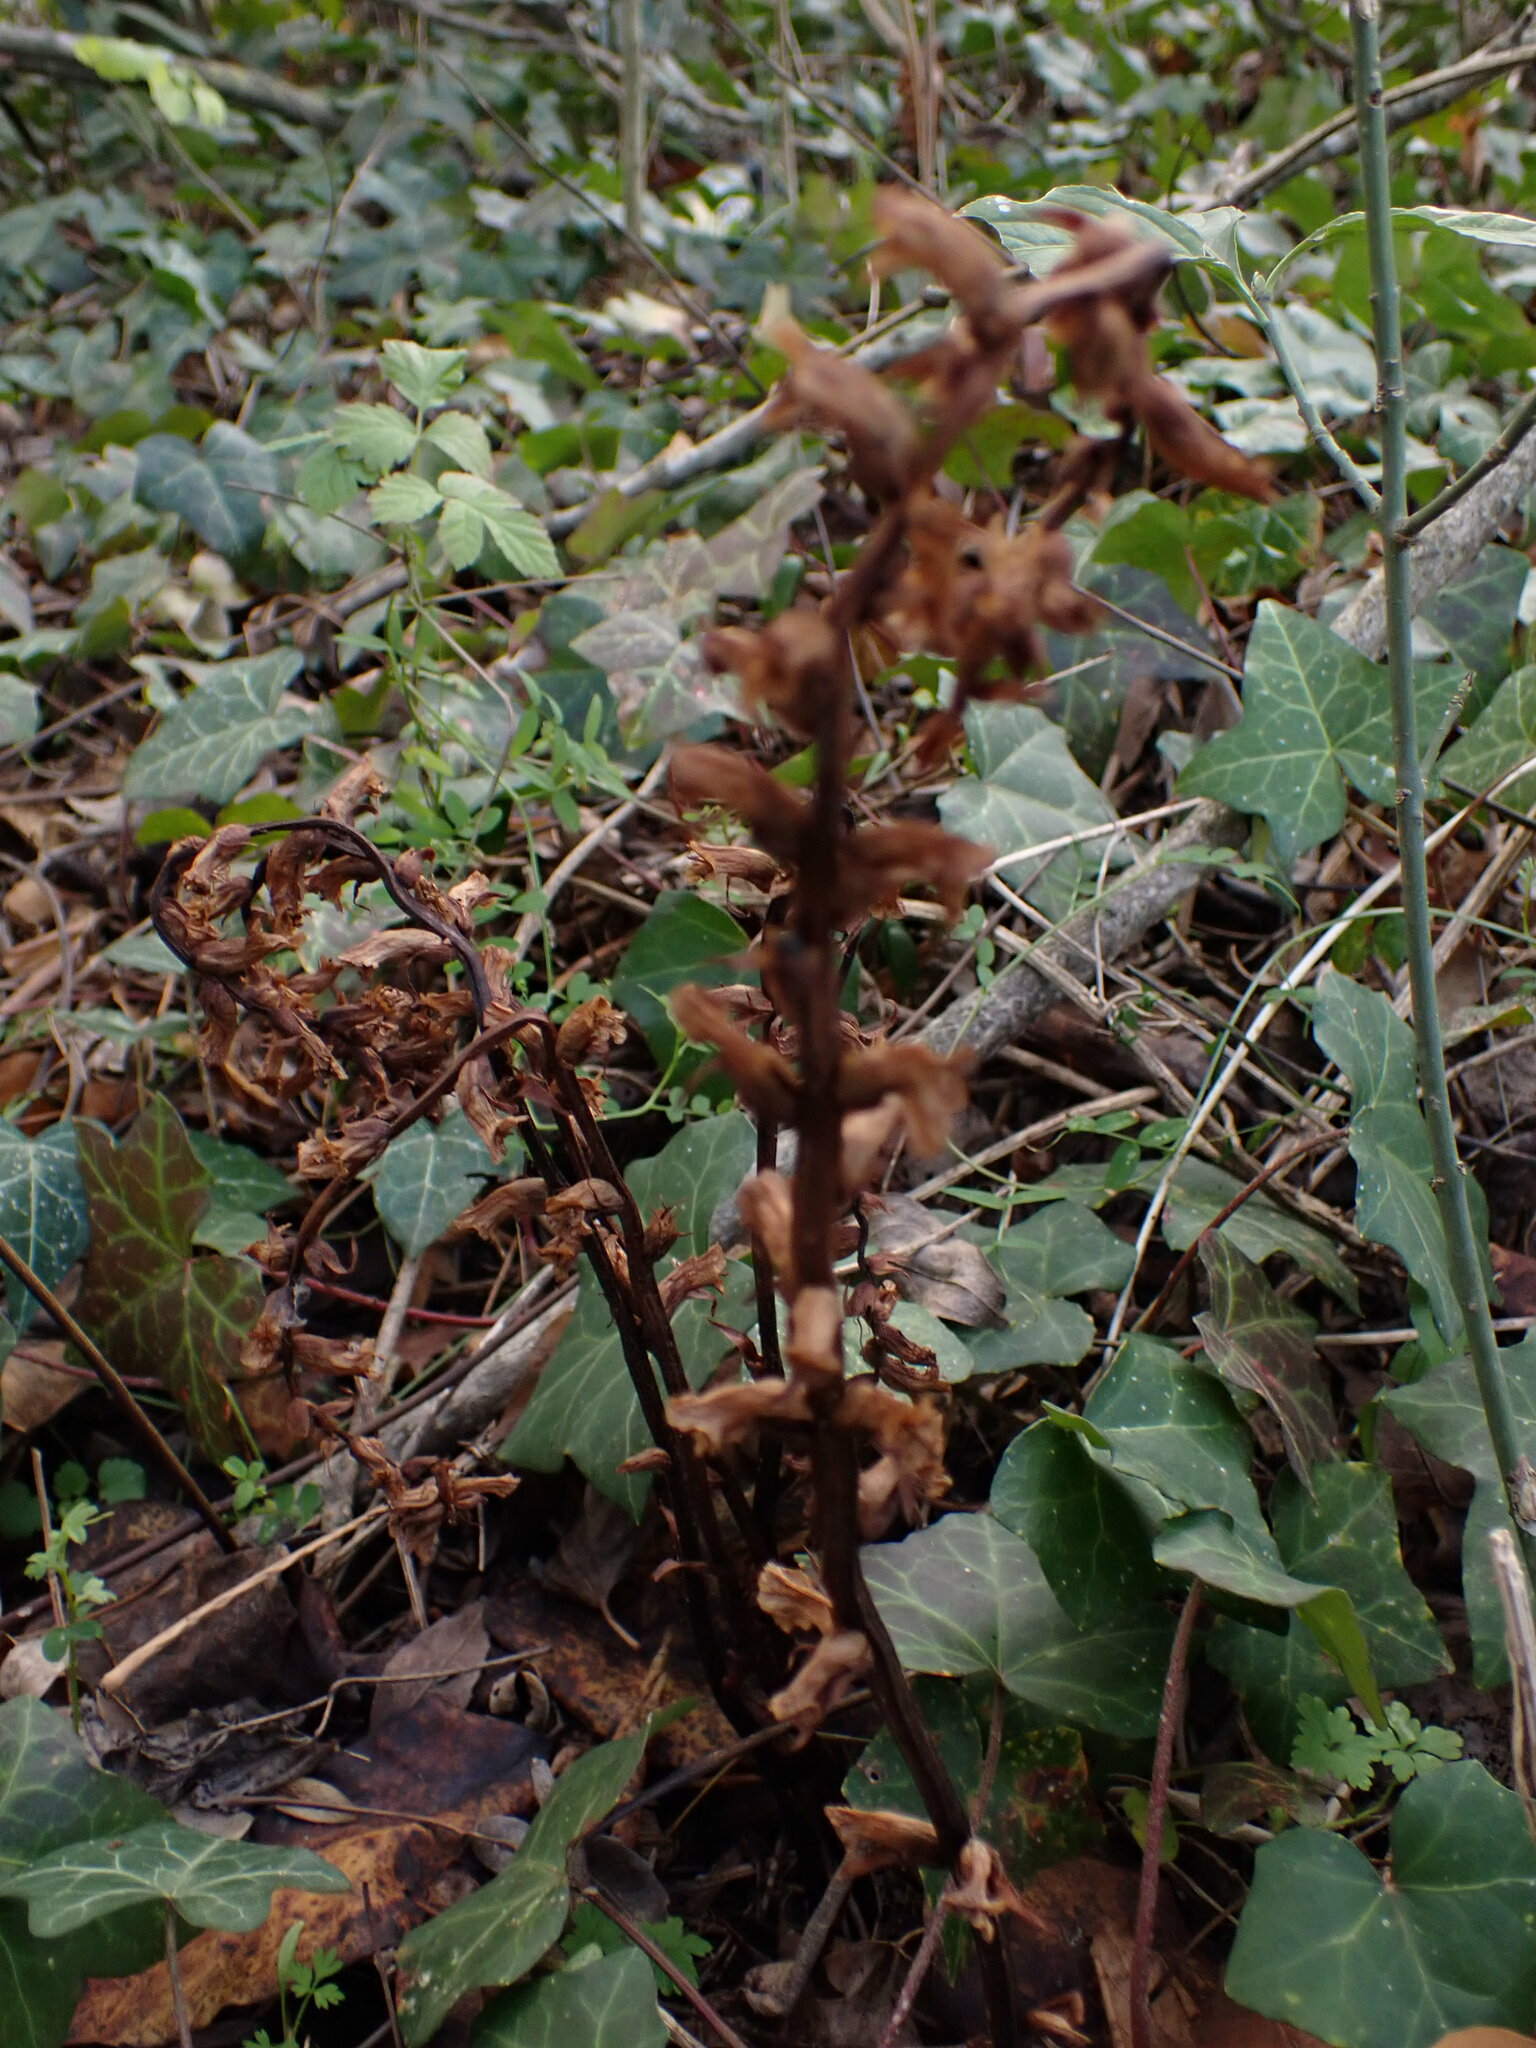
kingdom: Plantae
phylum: Tracheophyta
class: Magnoliopsida
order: Lamiales
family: Orobanchaceae
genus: Orobanche
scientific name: Orobanche hederae
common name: Ivy broomrape
